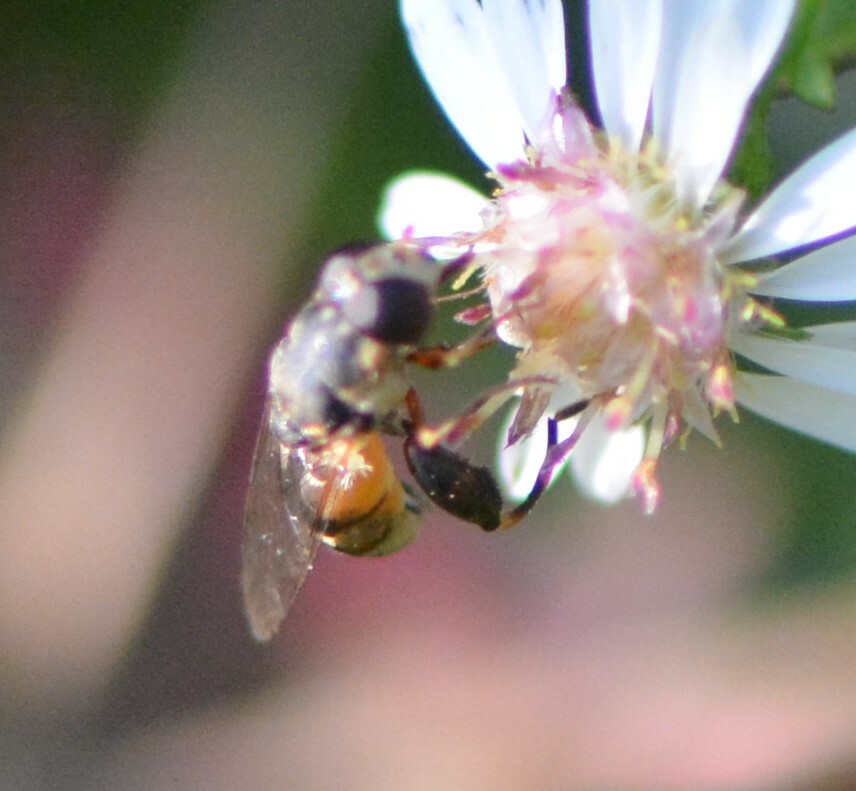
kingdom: Animalia
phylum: Arthropoda
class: Insecta
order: Diptera
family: Syrphidae
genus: Syritta
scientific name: Syritta pipiens
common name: Hover fly
